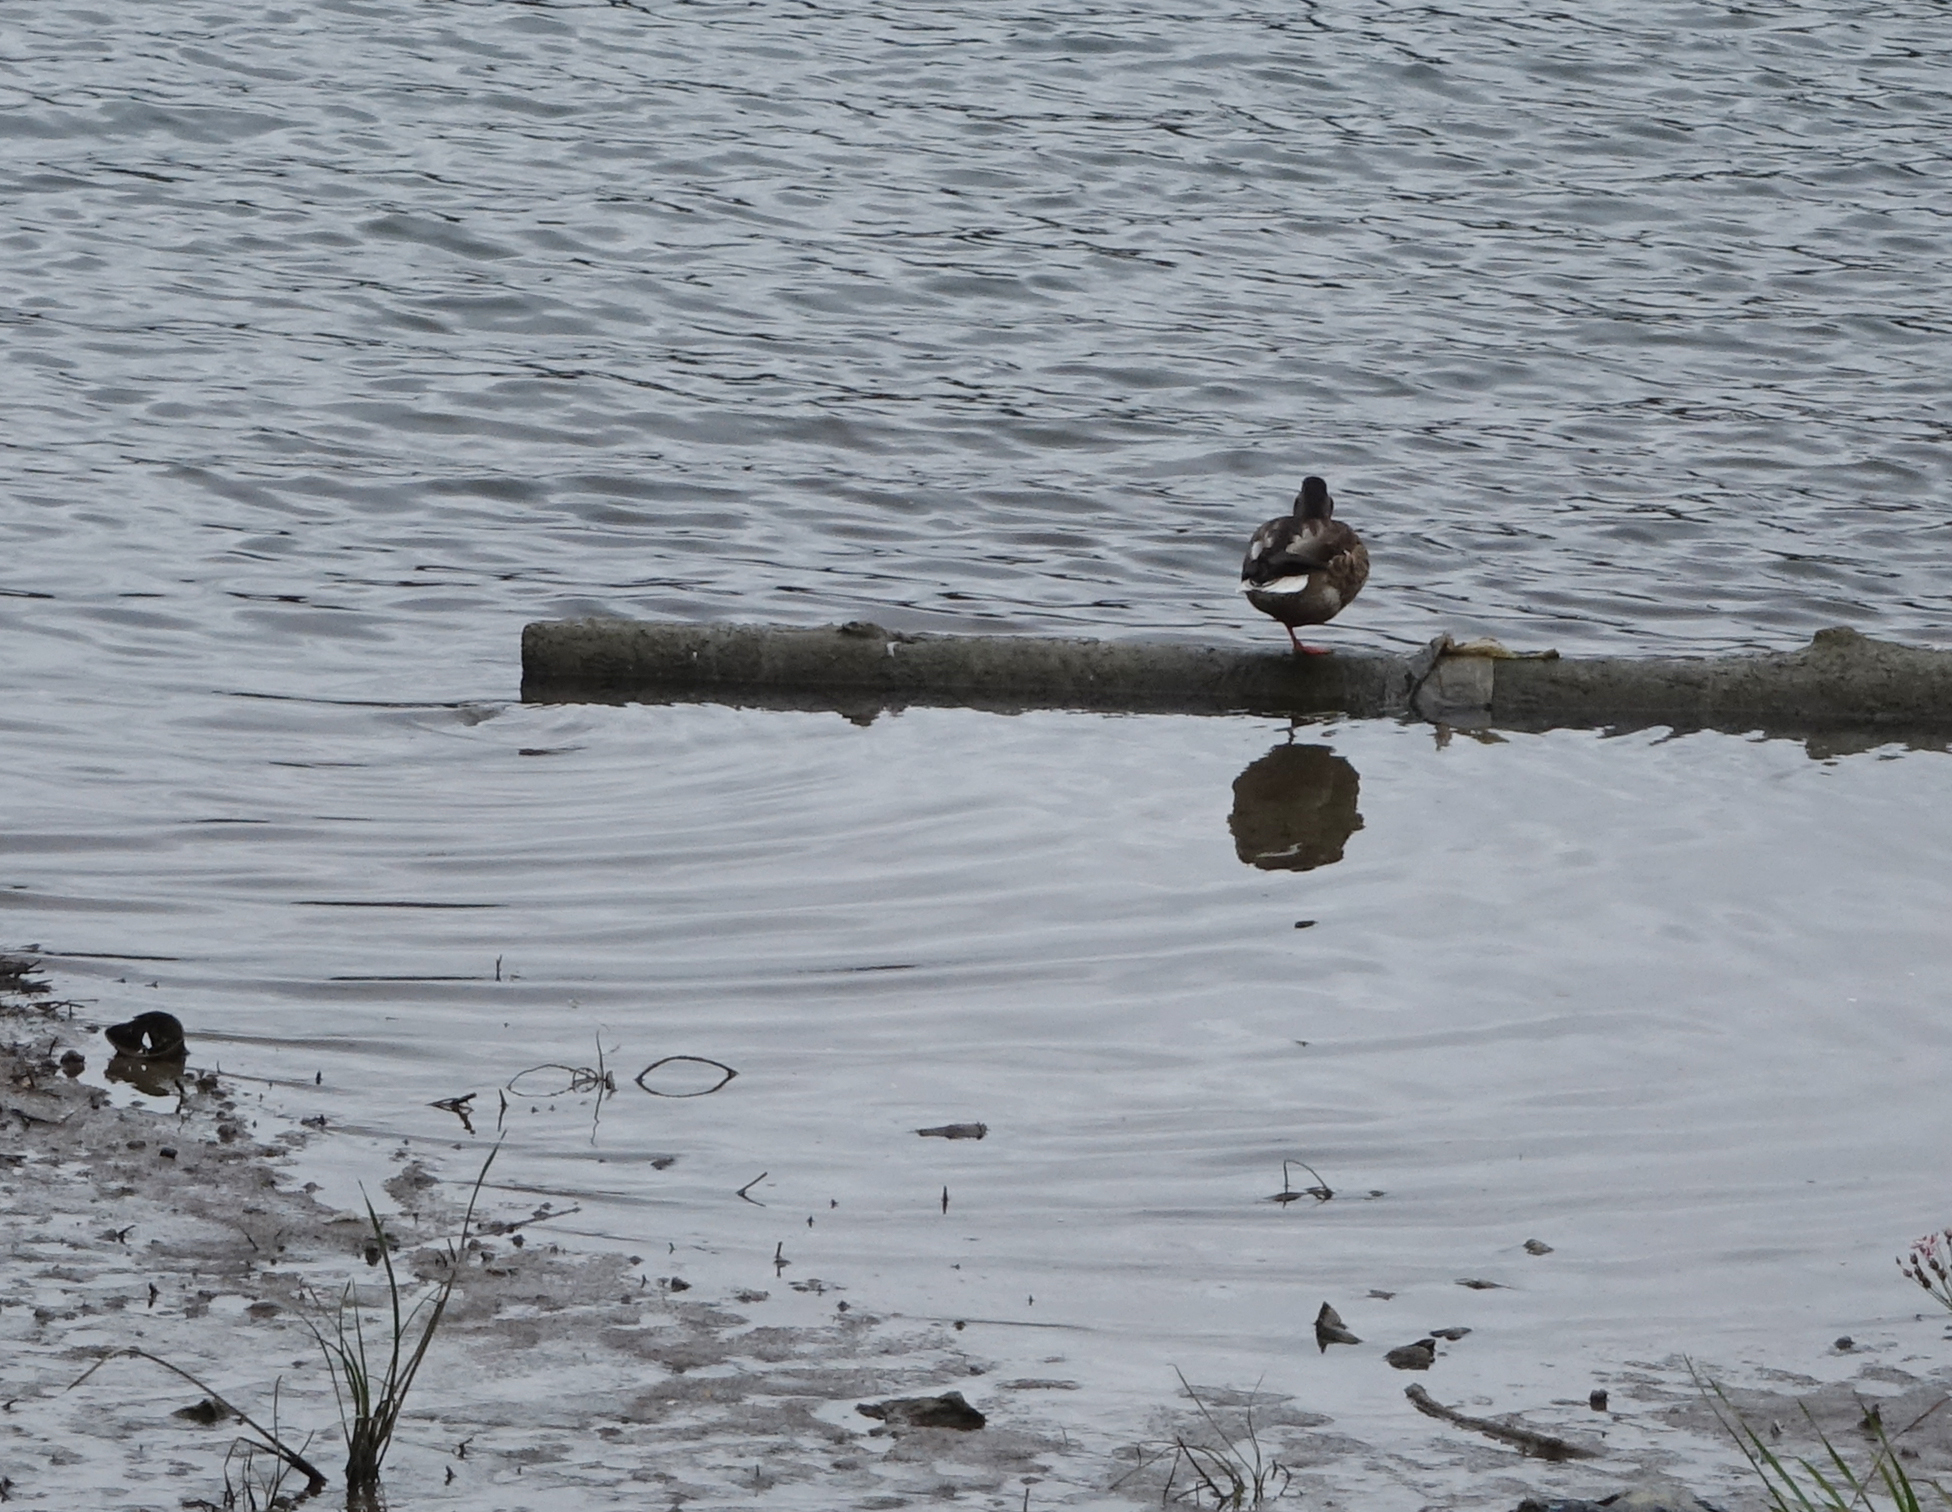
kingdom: Animalia
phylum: Chordata
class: Aves
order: Anseriformes
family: Anatidae
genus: Anas
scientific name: Anas platyrhynchos
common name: Mallard
